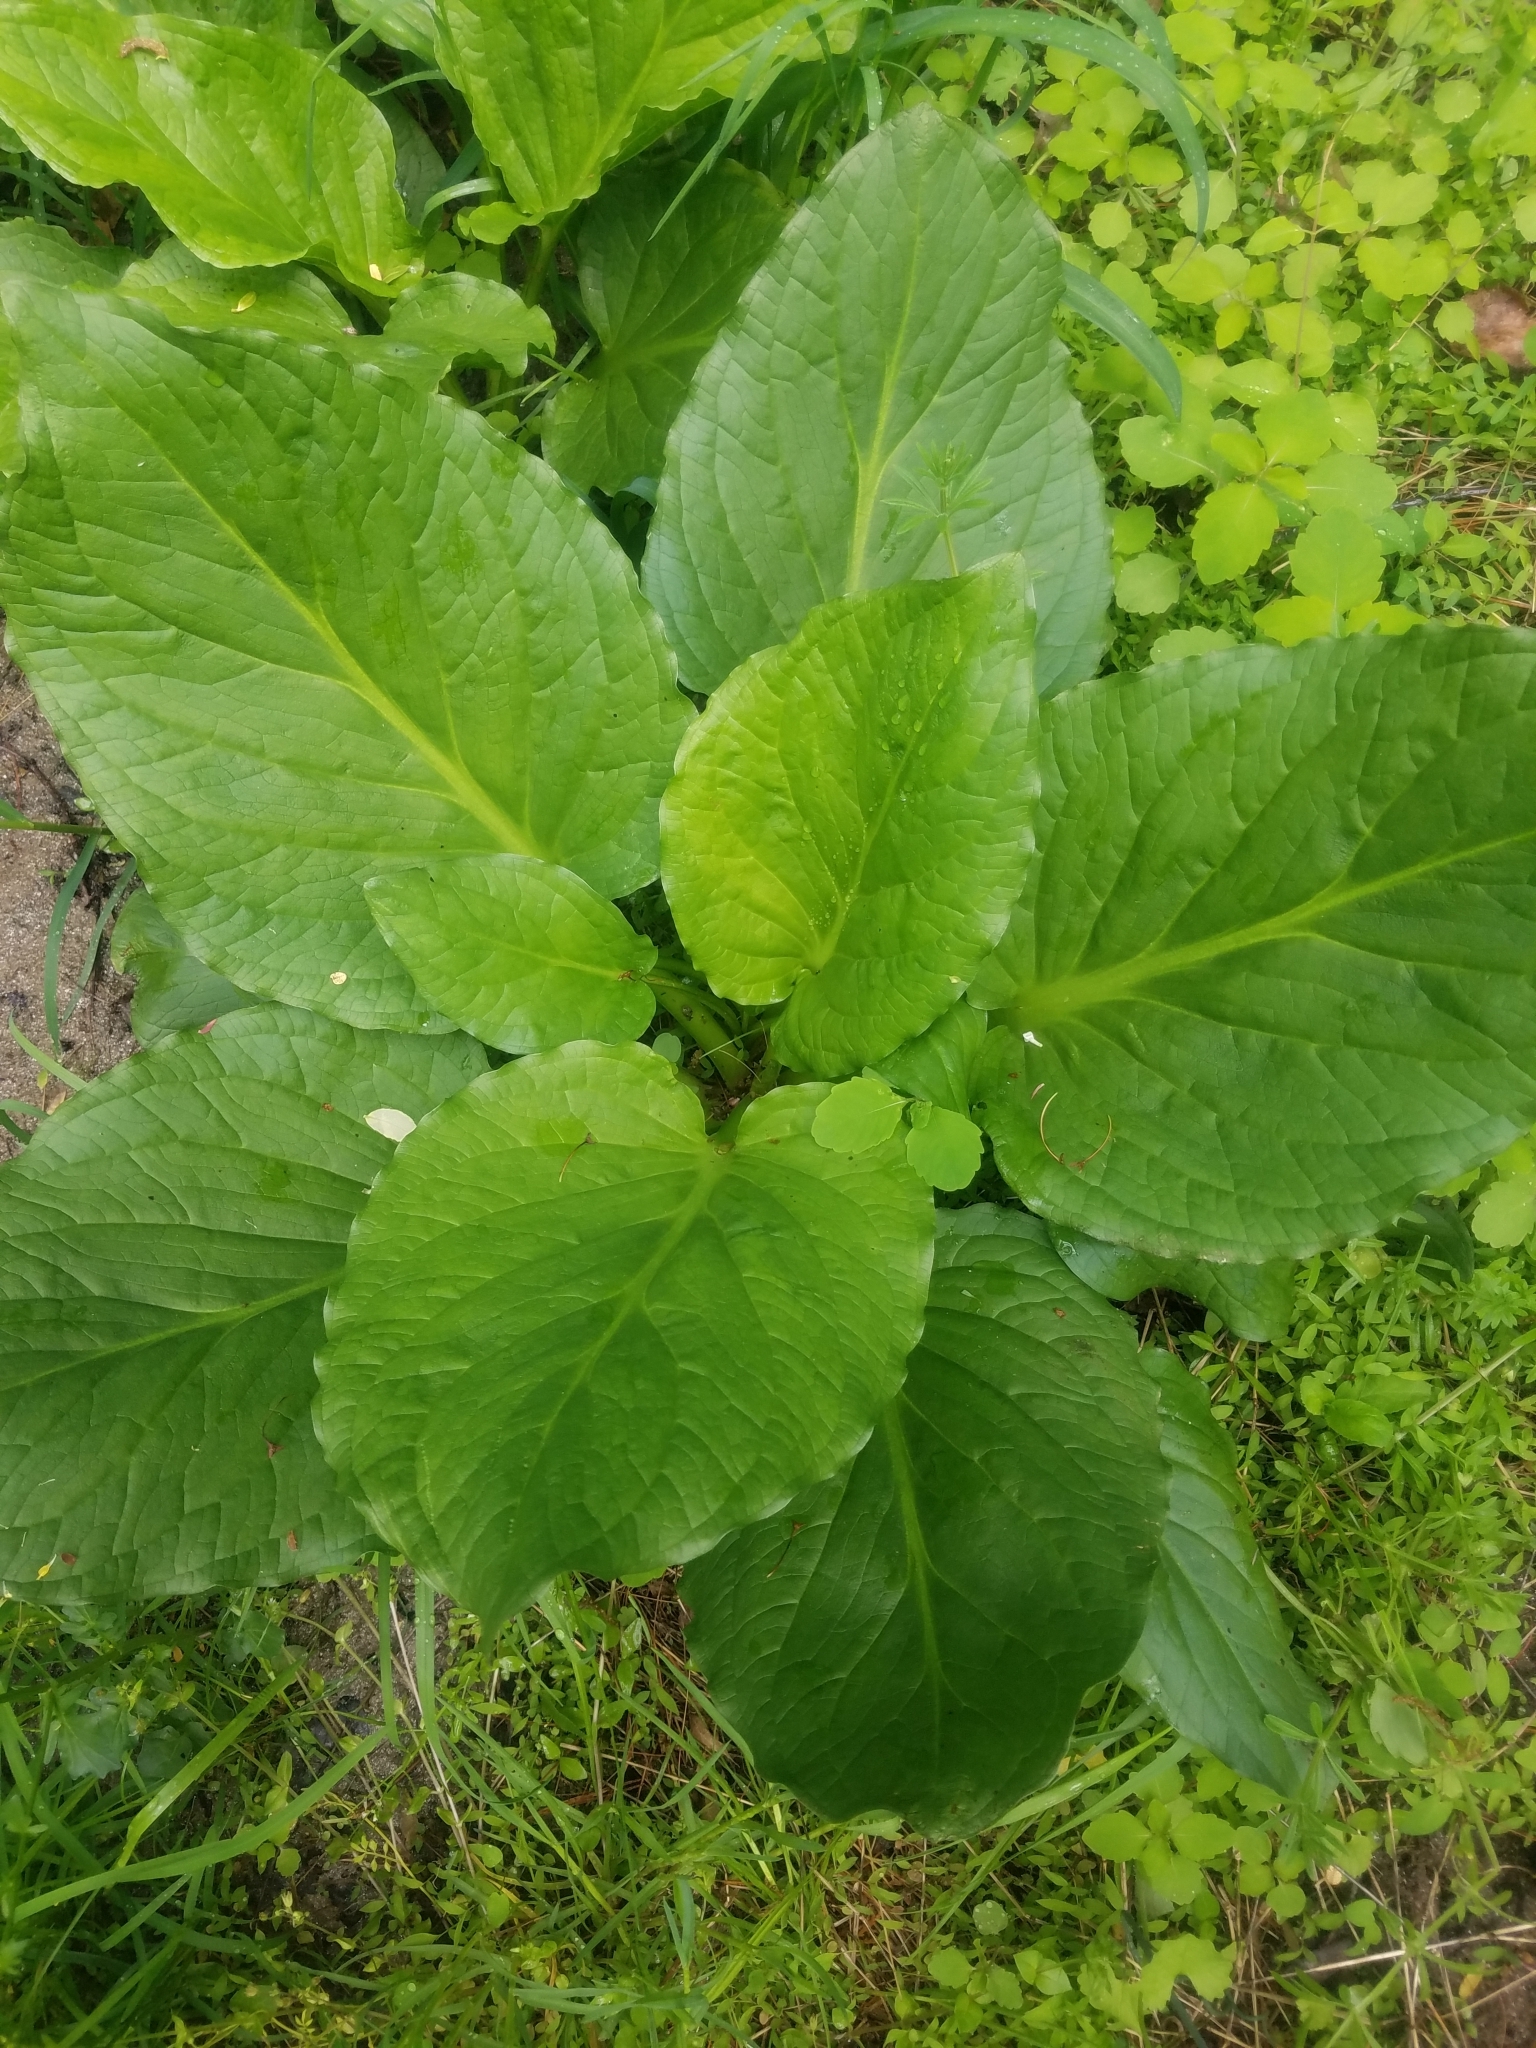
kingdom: Plantae
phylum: Tracheophyta
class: Liliopsida
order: Alismatales
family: Araceae
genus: Symplocarpus
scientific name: Symplocarpus foetidus
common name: Eastern skunk cabbage
